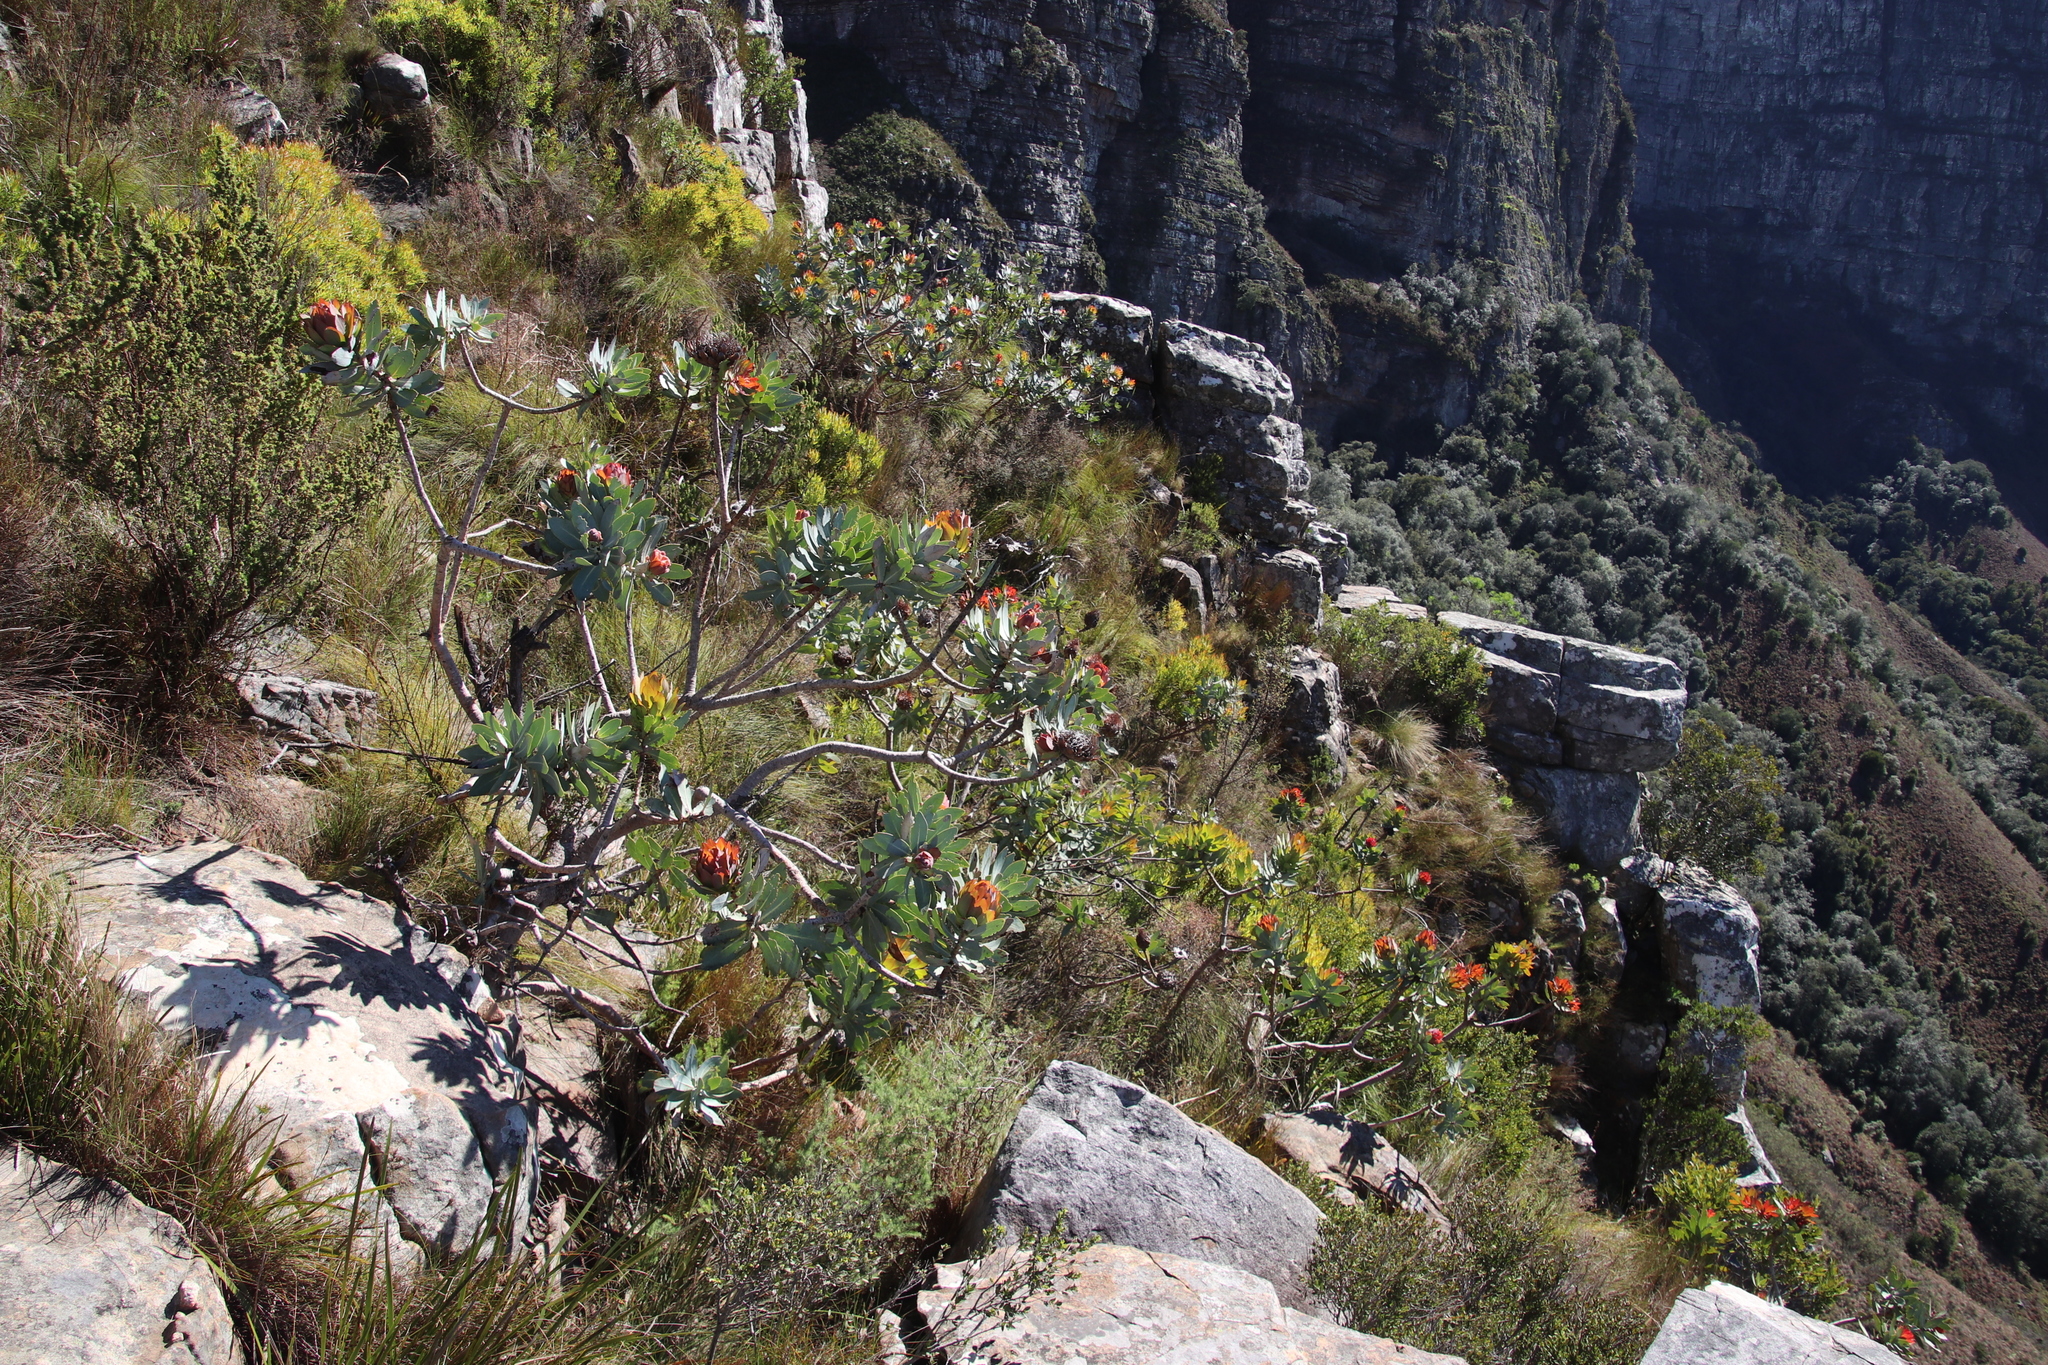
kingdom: Plantae
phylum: Tracheophyta
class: Magnoliopsida
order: Proteales
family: Proteaceae
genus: Protea
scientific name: Protea nitida
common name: Tree protea
